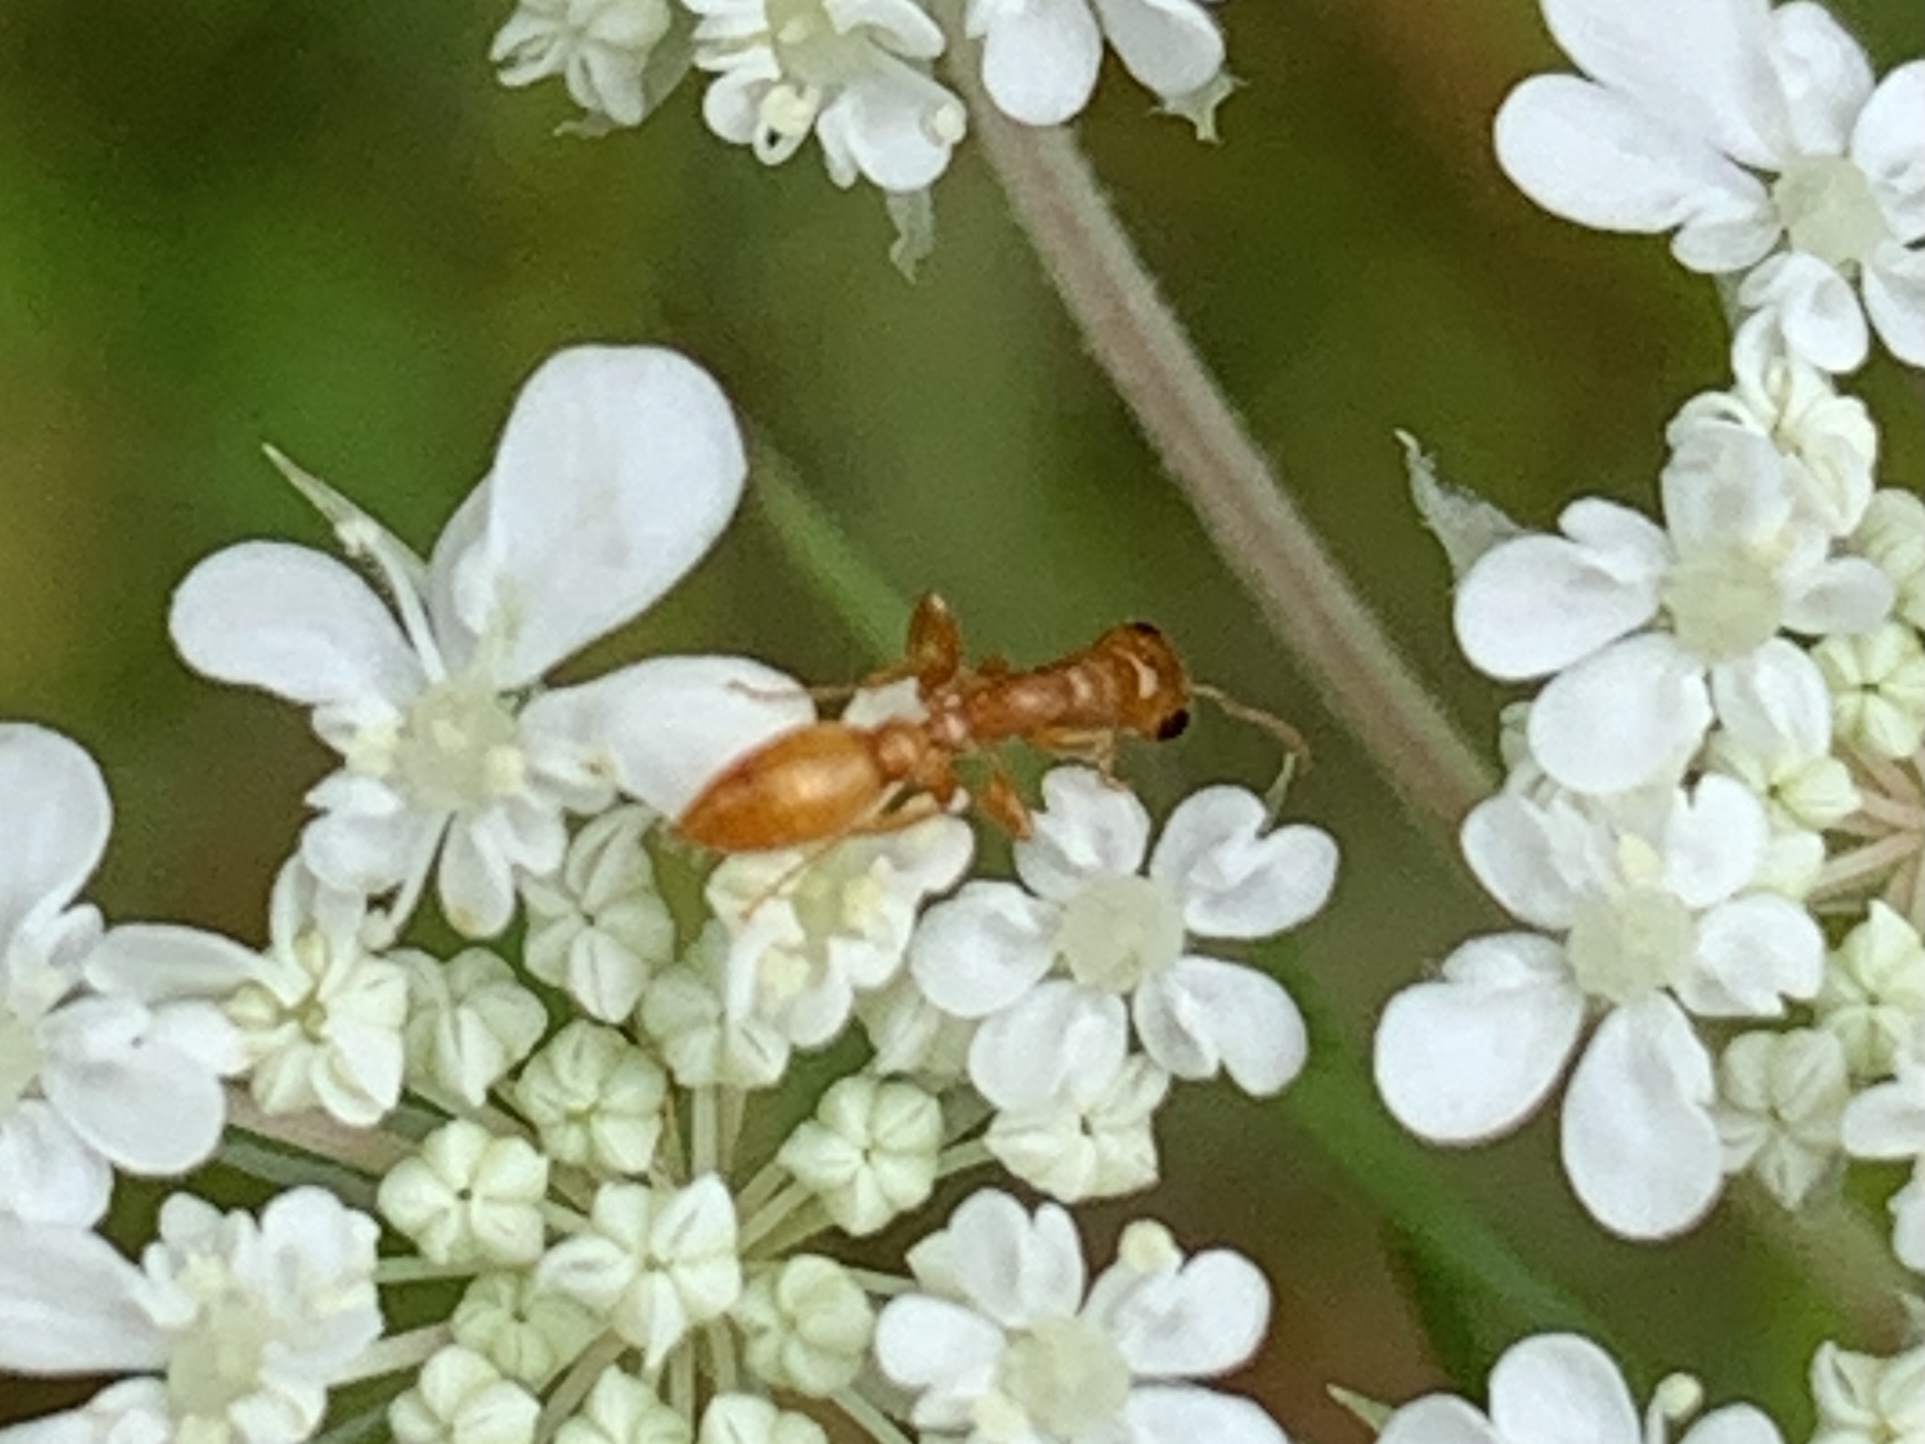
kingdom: Animalia
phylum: Arthropoda
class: Insecta
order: Hymenoptera
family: Formicidae
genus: Pseudomyrmex
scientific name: Pseudomyrmex pallidus
